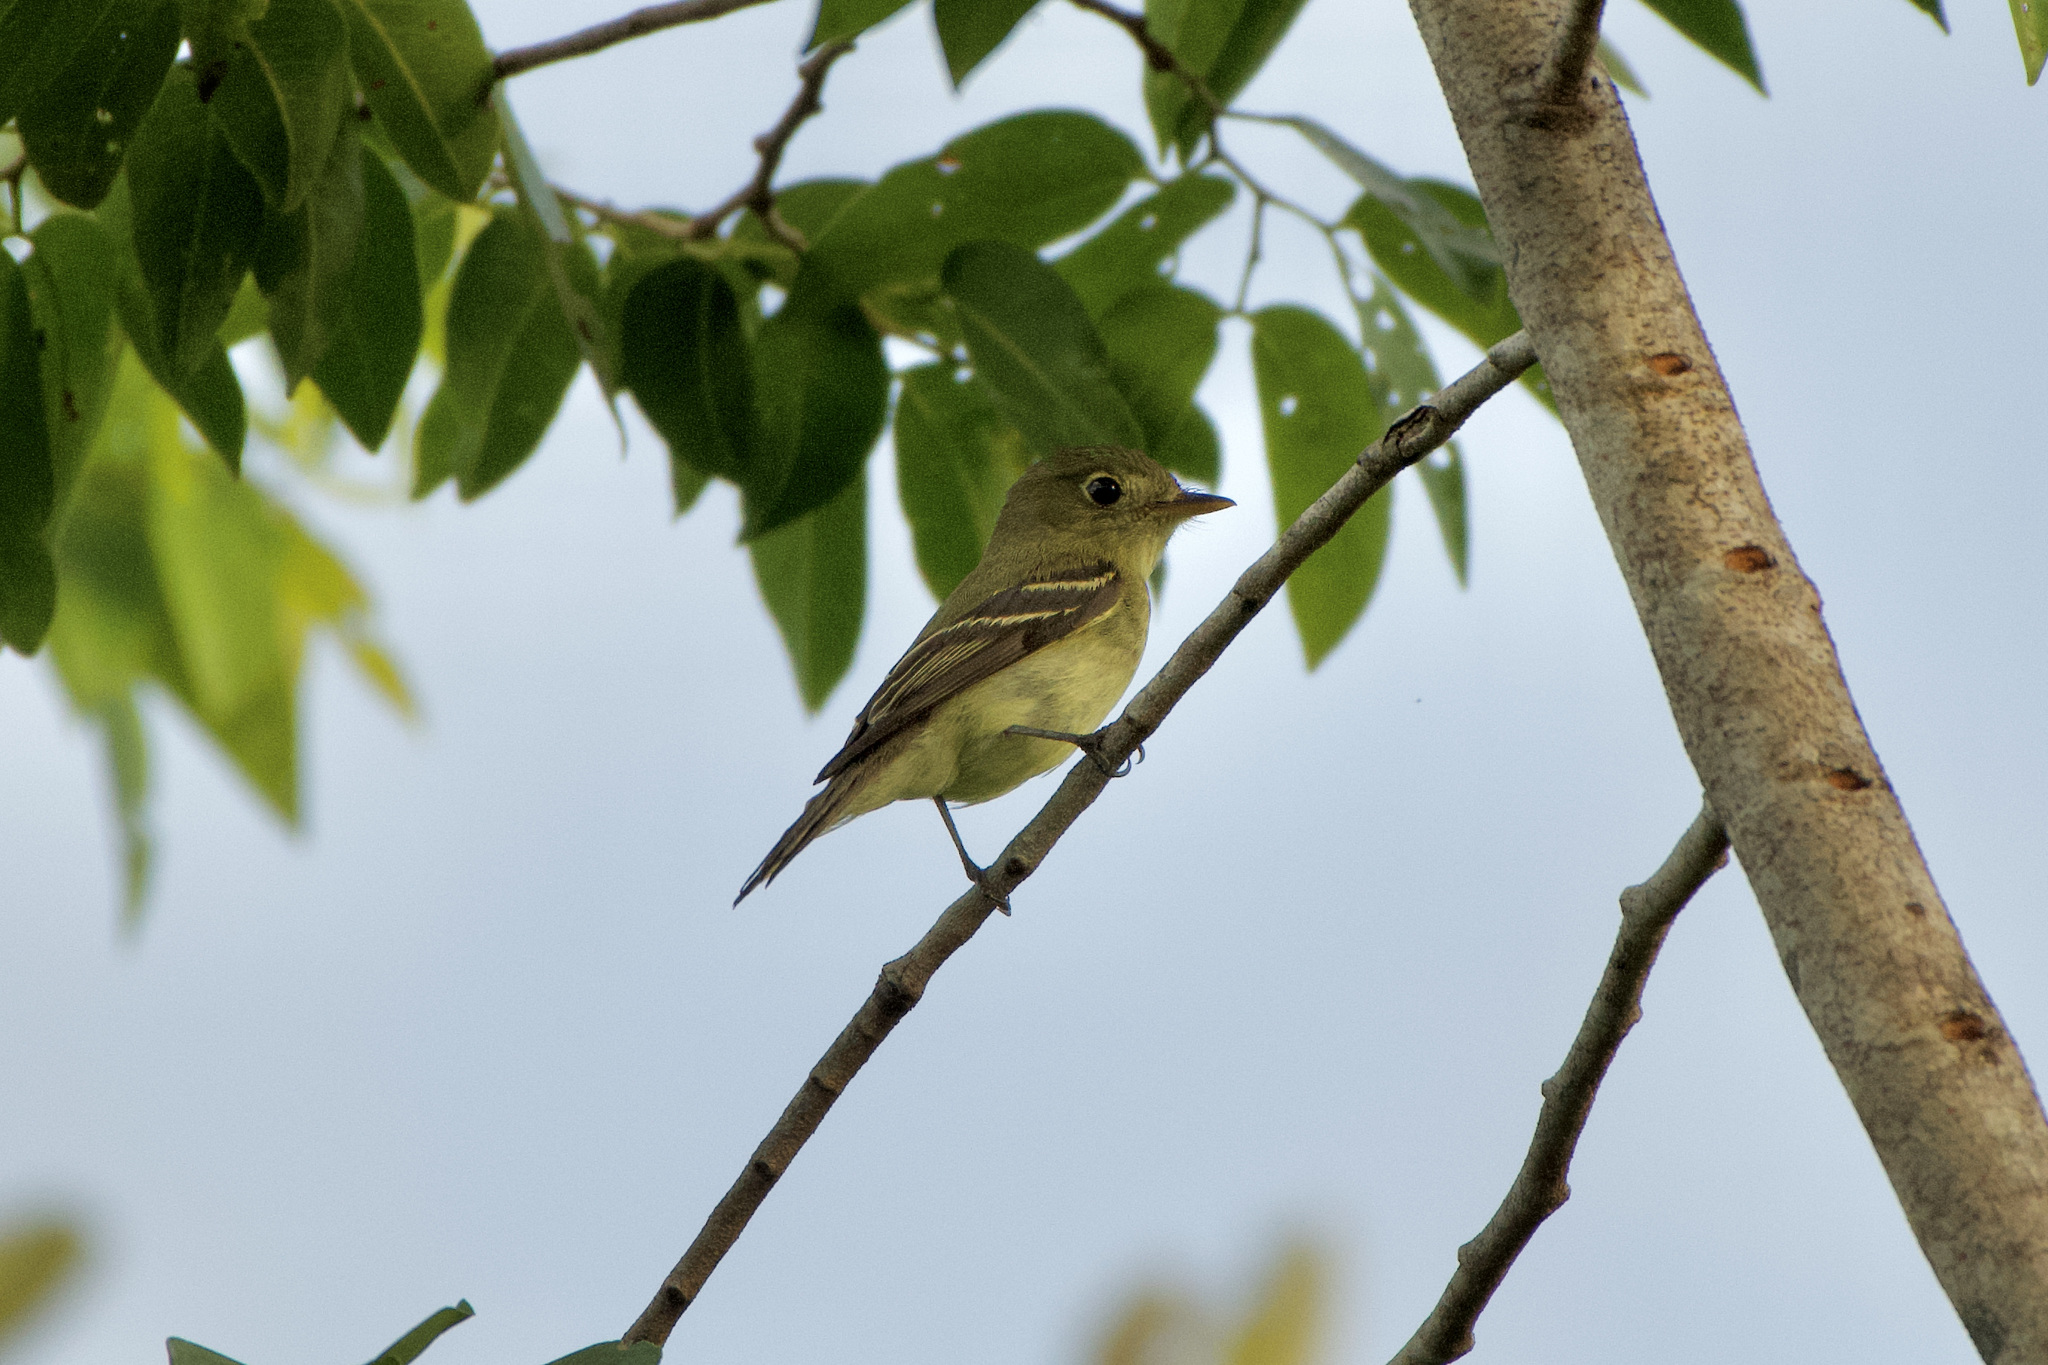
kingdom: Animalia
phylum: Chordata
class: Aves
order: Passeriformes
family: Tyrannidae
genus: Empidonax
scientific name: Empidonax flaviventris
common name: Yellow-bellied flycatcher
